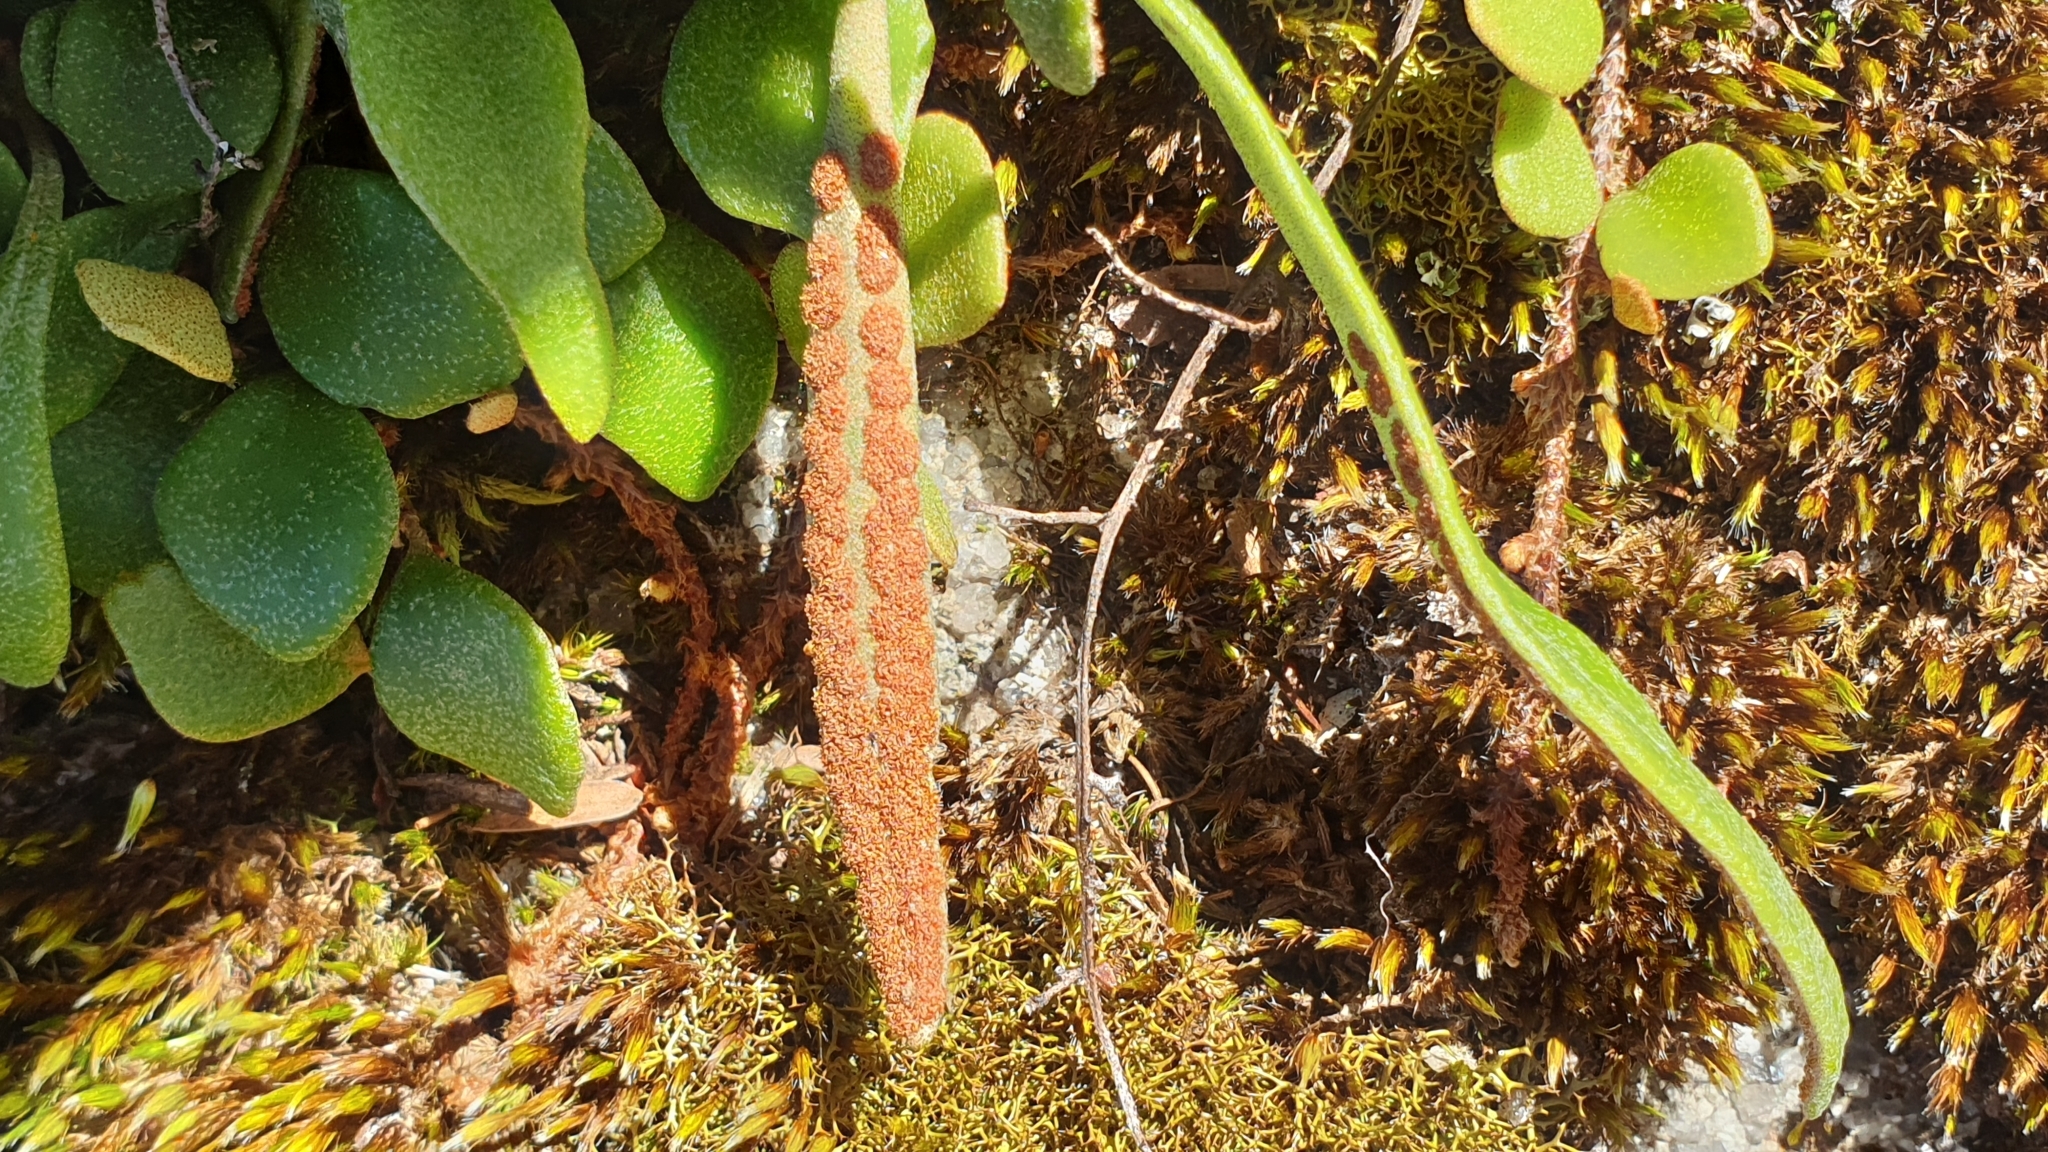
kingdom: Plantae
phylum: Tracheophyta
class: Polypodiopsida
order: Polypodiales
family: Polypodiaceae
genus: Pyrrosia
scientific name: Pyrrosia rupestris
